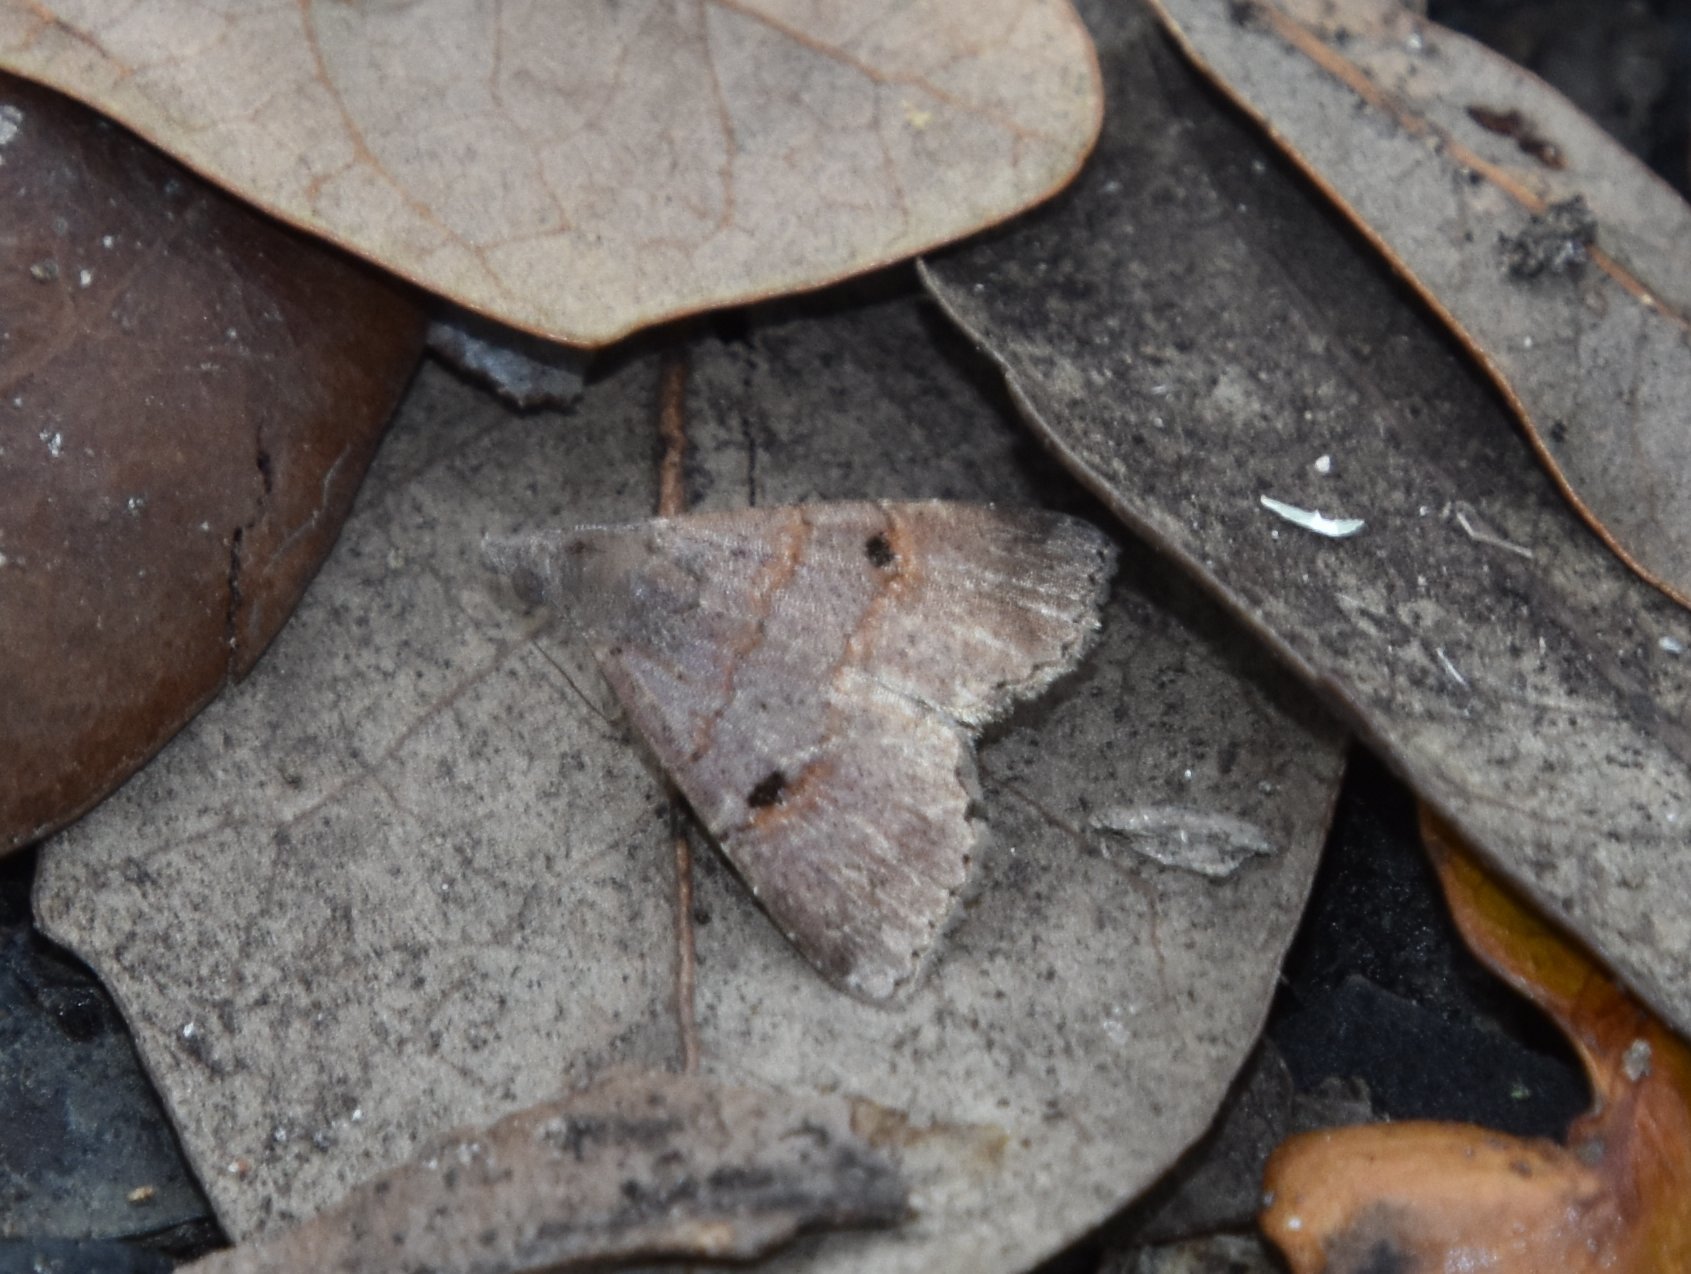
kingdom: Animalia
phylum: Arthropoda
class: Insecta
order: Lepidoptera
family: Noctuidae
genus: Hormoschista
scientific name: Hormoschista latipalpis
